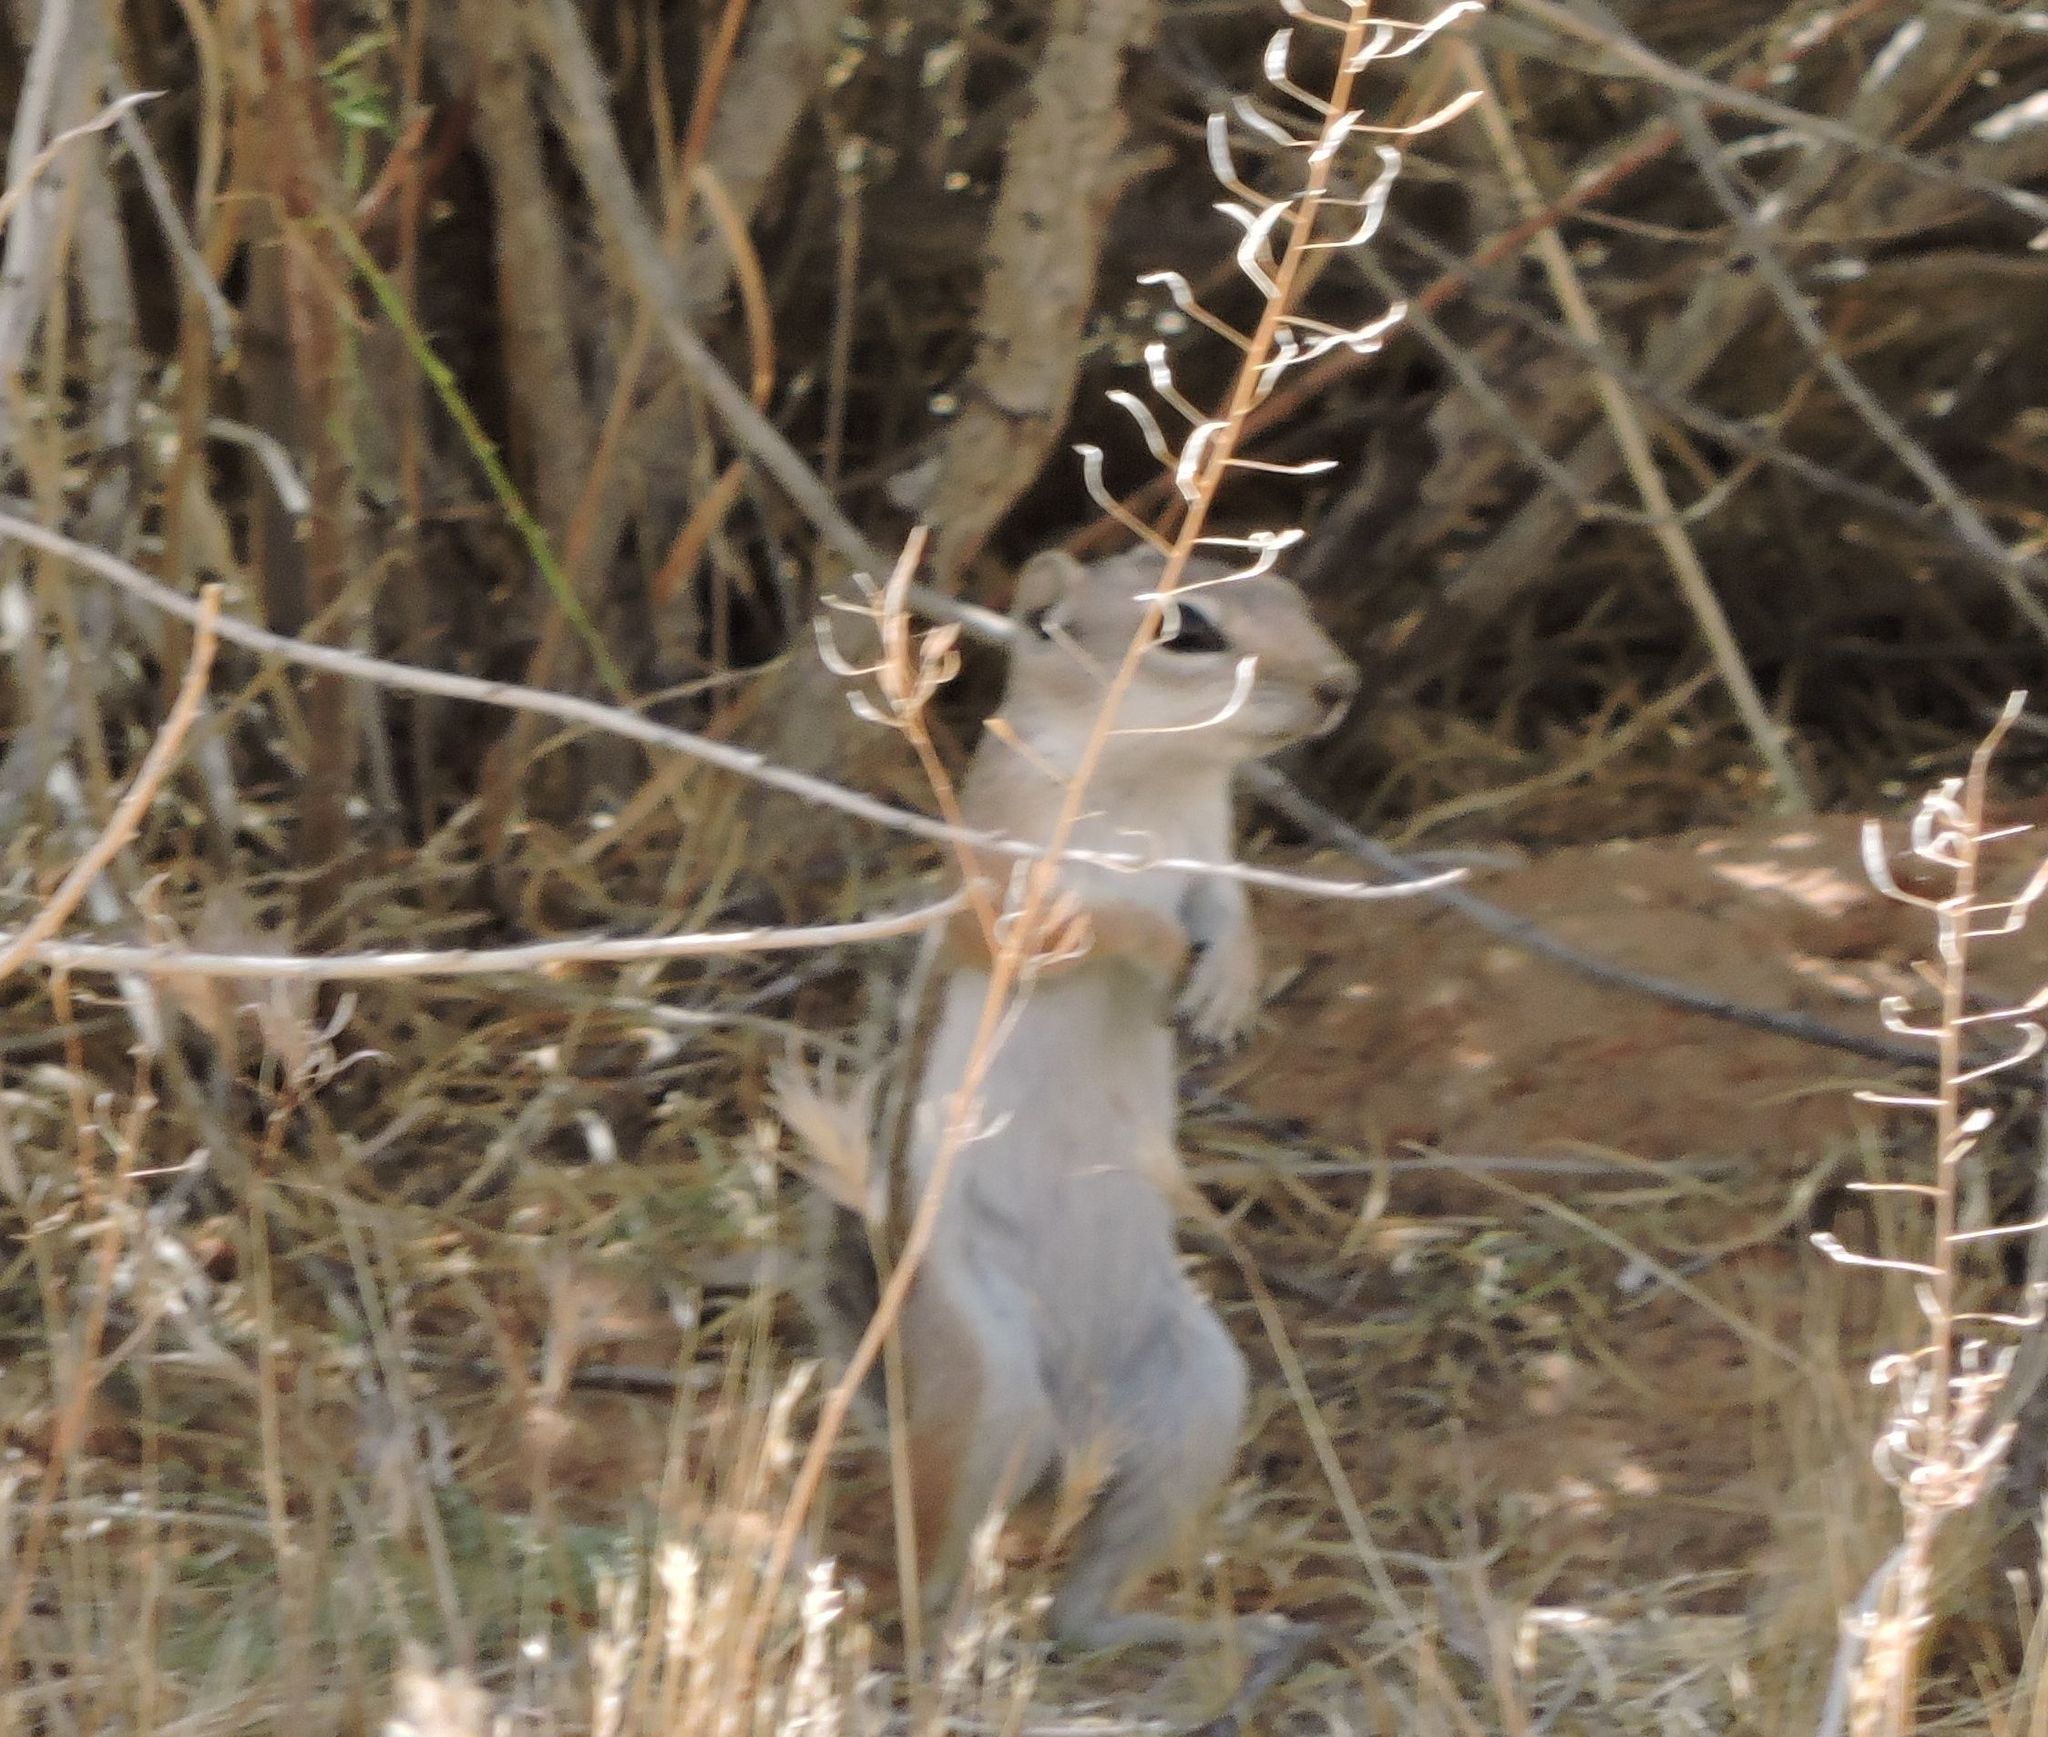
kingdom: Animalia
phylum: Chordata
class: Mammalia
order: Rodentia
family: Sciuridae
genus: Ammospermophilus
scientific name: Ammospermophilus leucurus
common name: White-tailed antelope squirrel
